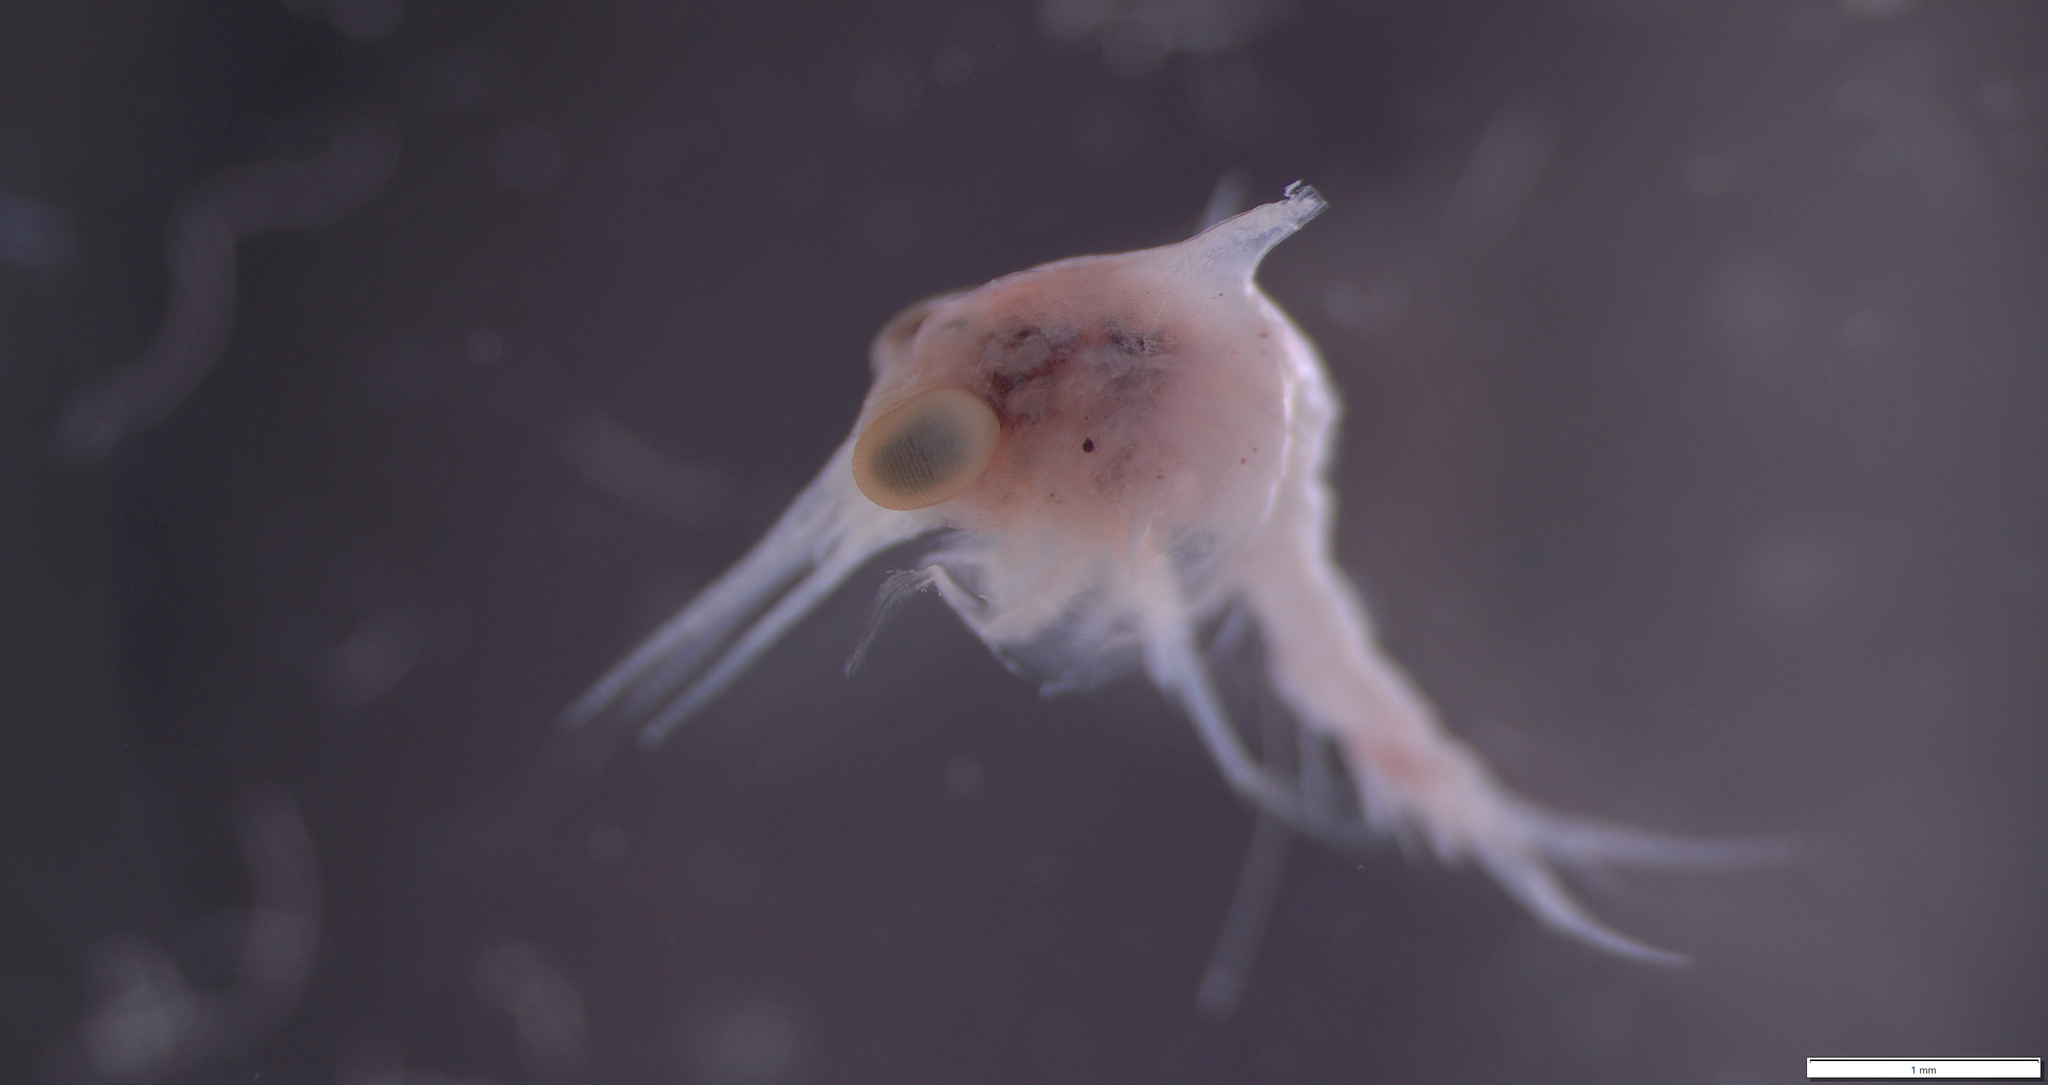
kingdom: Animalia
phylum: Arthropoda
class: Malacostraca
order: Decapoda
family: Cancridae
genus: Cancer
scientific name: Cancer irroratus
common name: Atlantic rock crab
